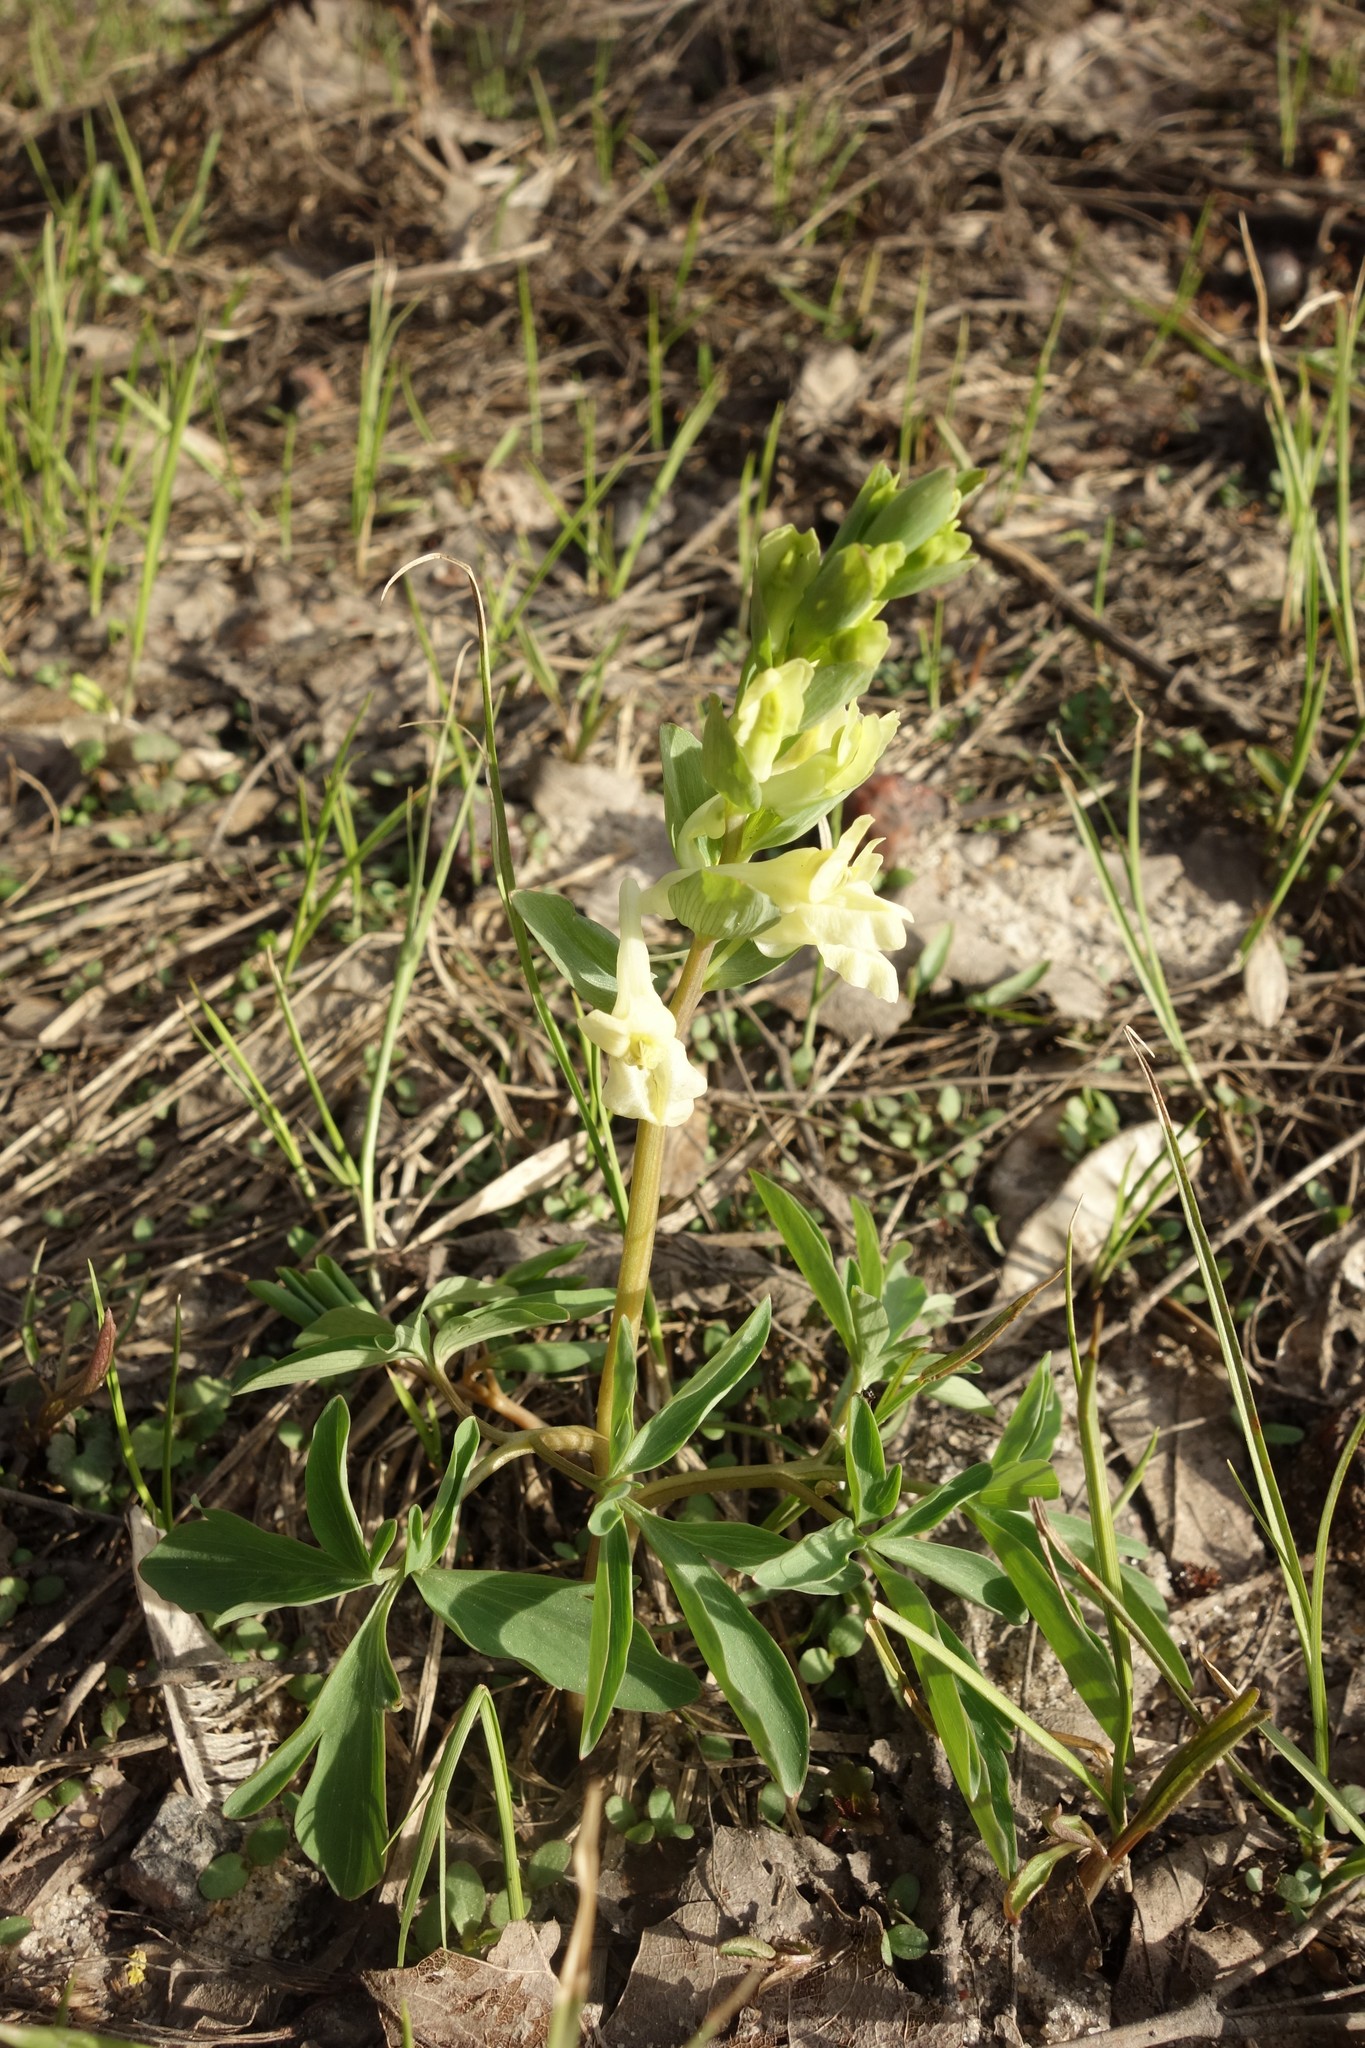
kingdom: Plantae
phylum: Tracheophyta
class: Magnoliopsida
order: Ranunculales
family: Papaveraceae
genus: Corydalis
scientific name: Corydalis cava
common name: Hollowroot
